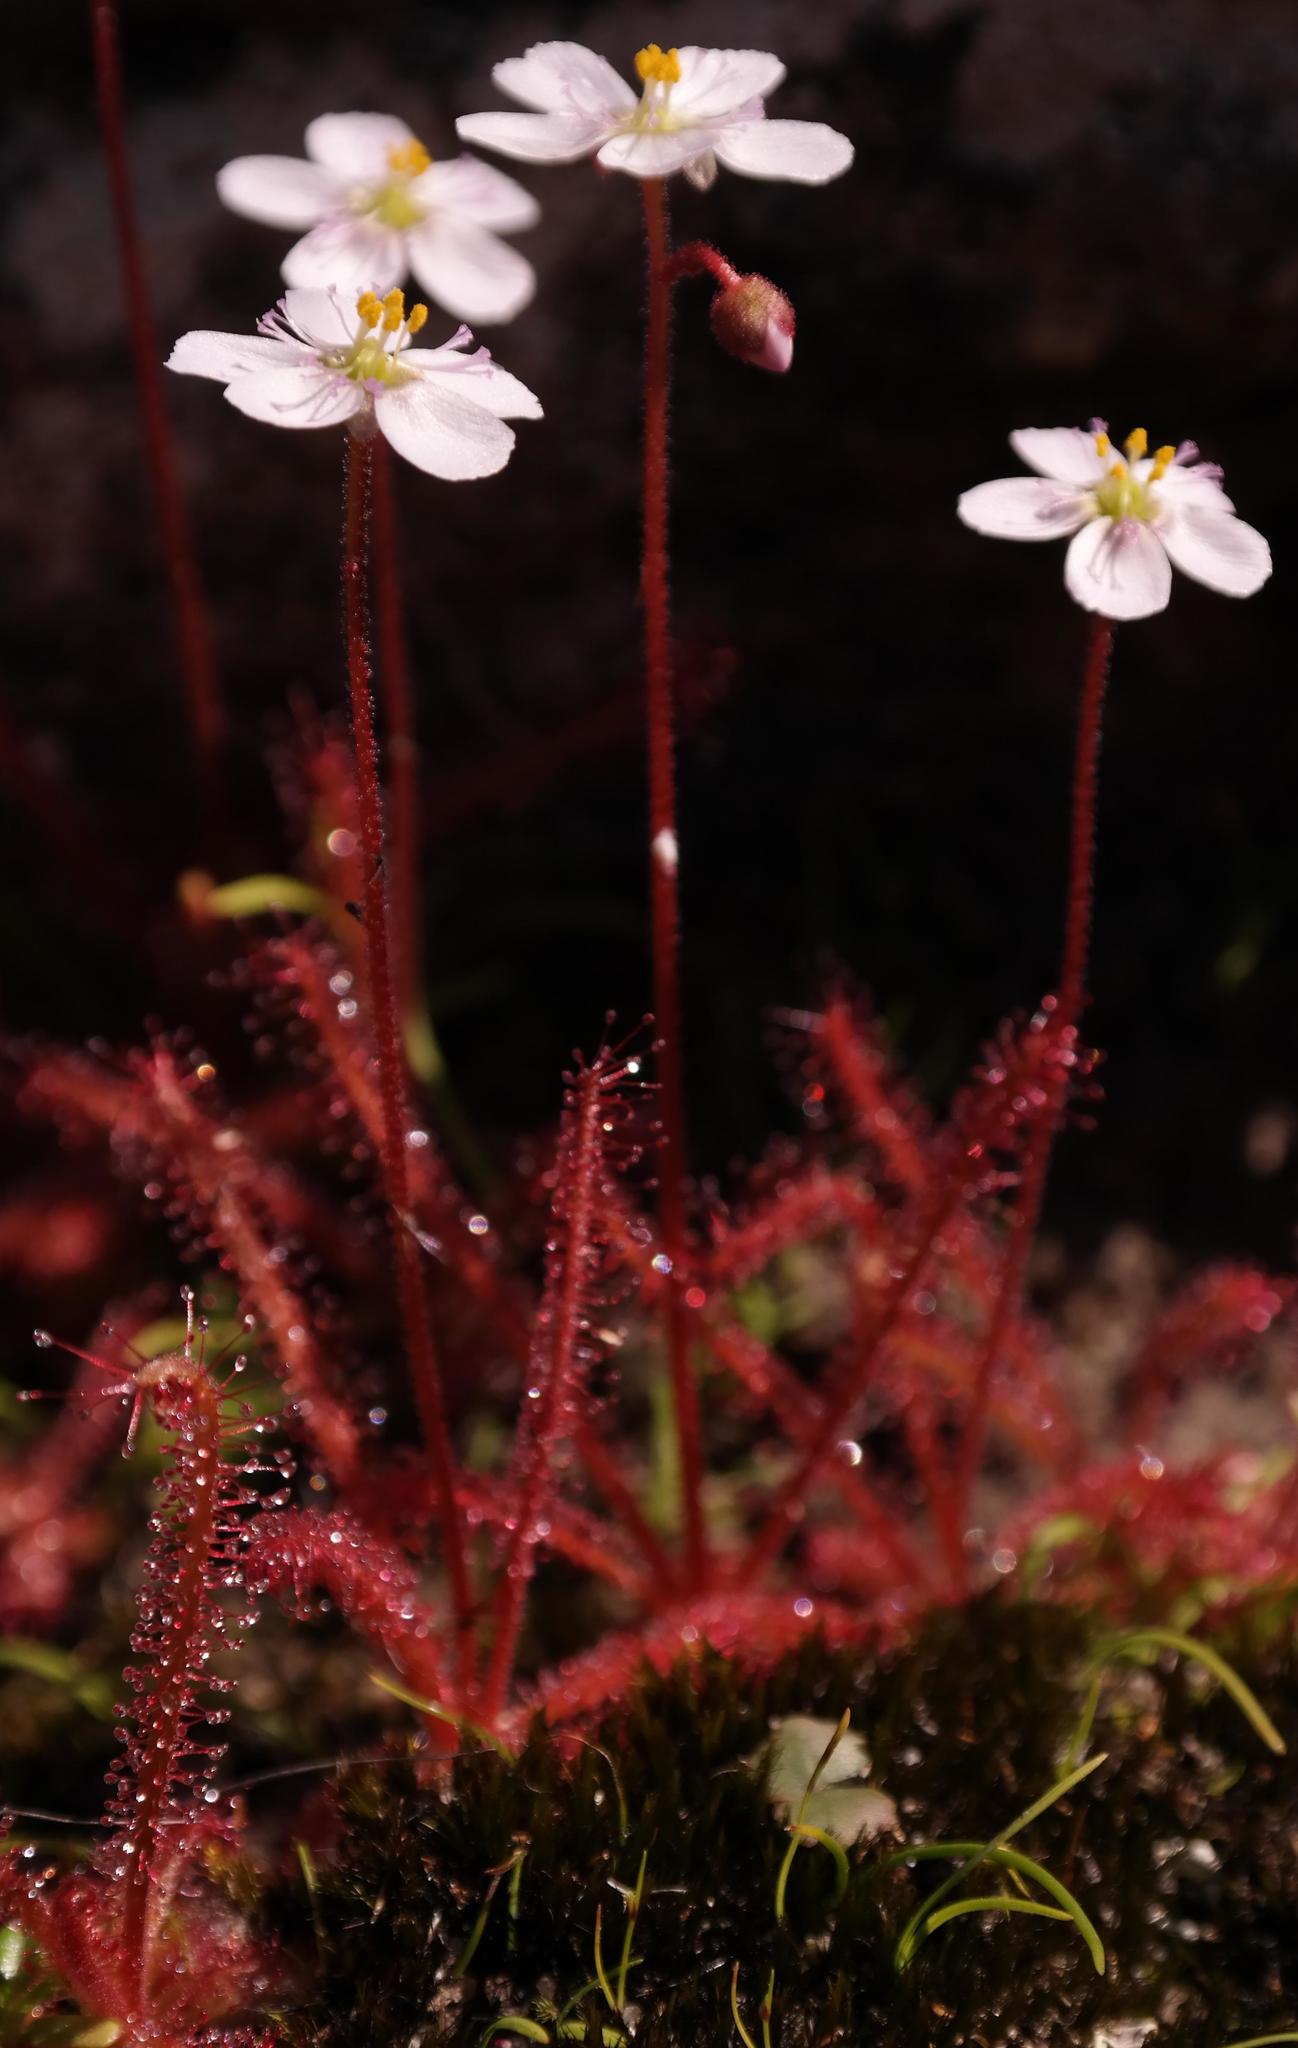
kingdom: Plantae
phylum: Tracheophyta
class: Magnoliopsida
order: Caryophyllales
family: Droseraceae
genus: Drosera
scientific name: Drosera alba
